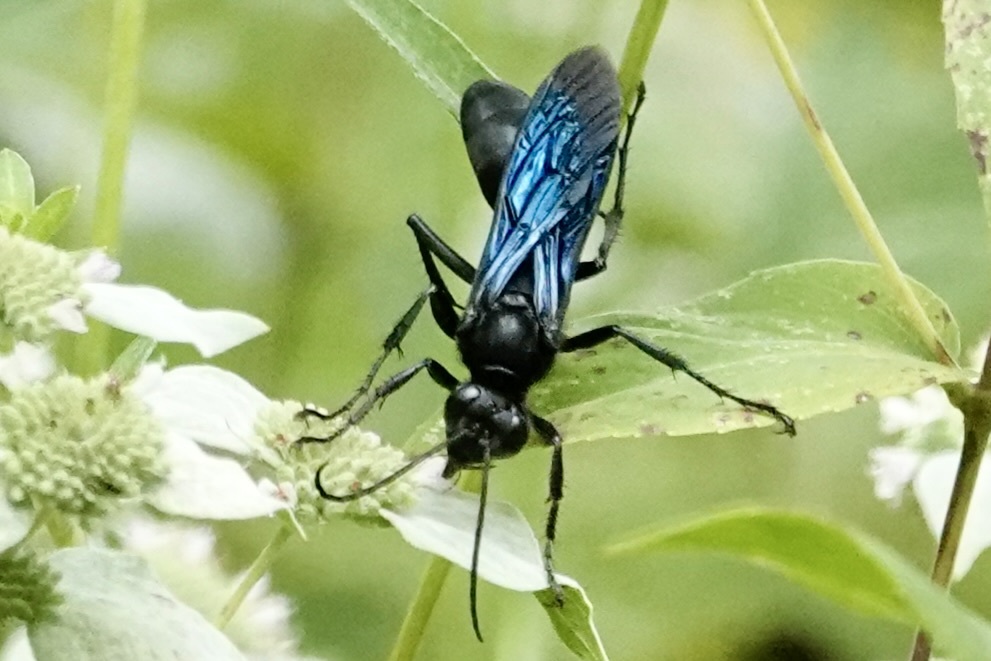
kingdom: Animalia
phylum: Arthropoda
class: Insecta
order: Hymenoptera
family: Sphecidae
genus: Sphex
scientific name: Sphex pensylvanicus
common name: Great black digger wasp
